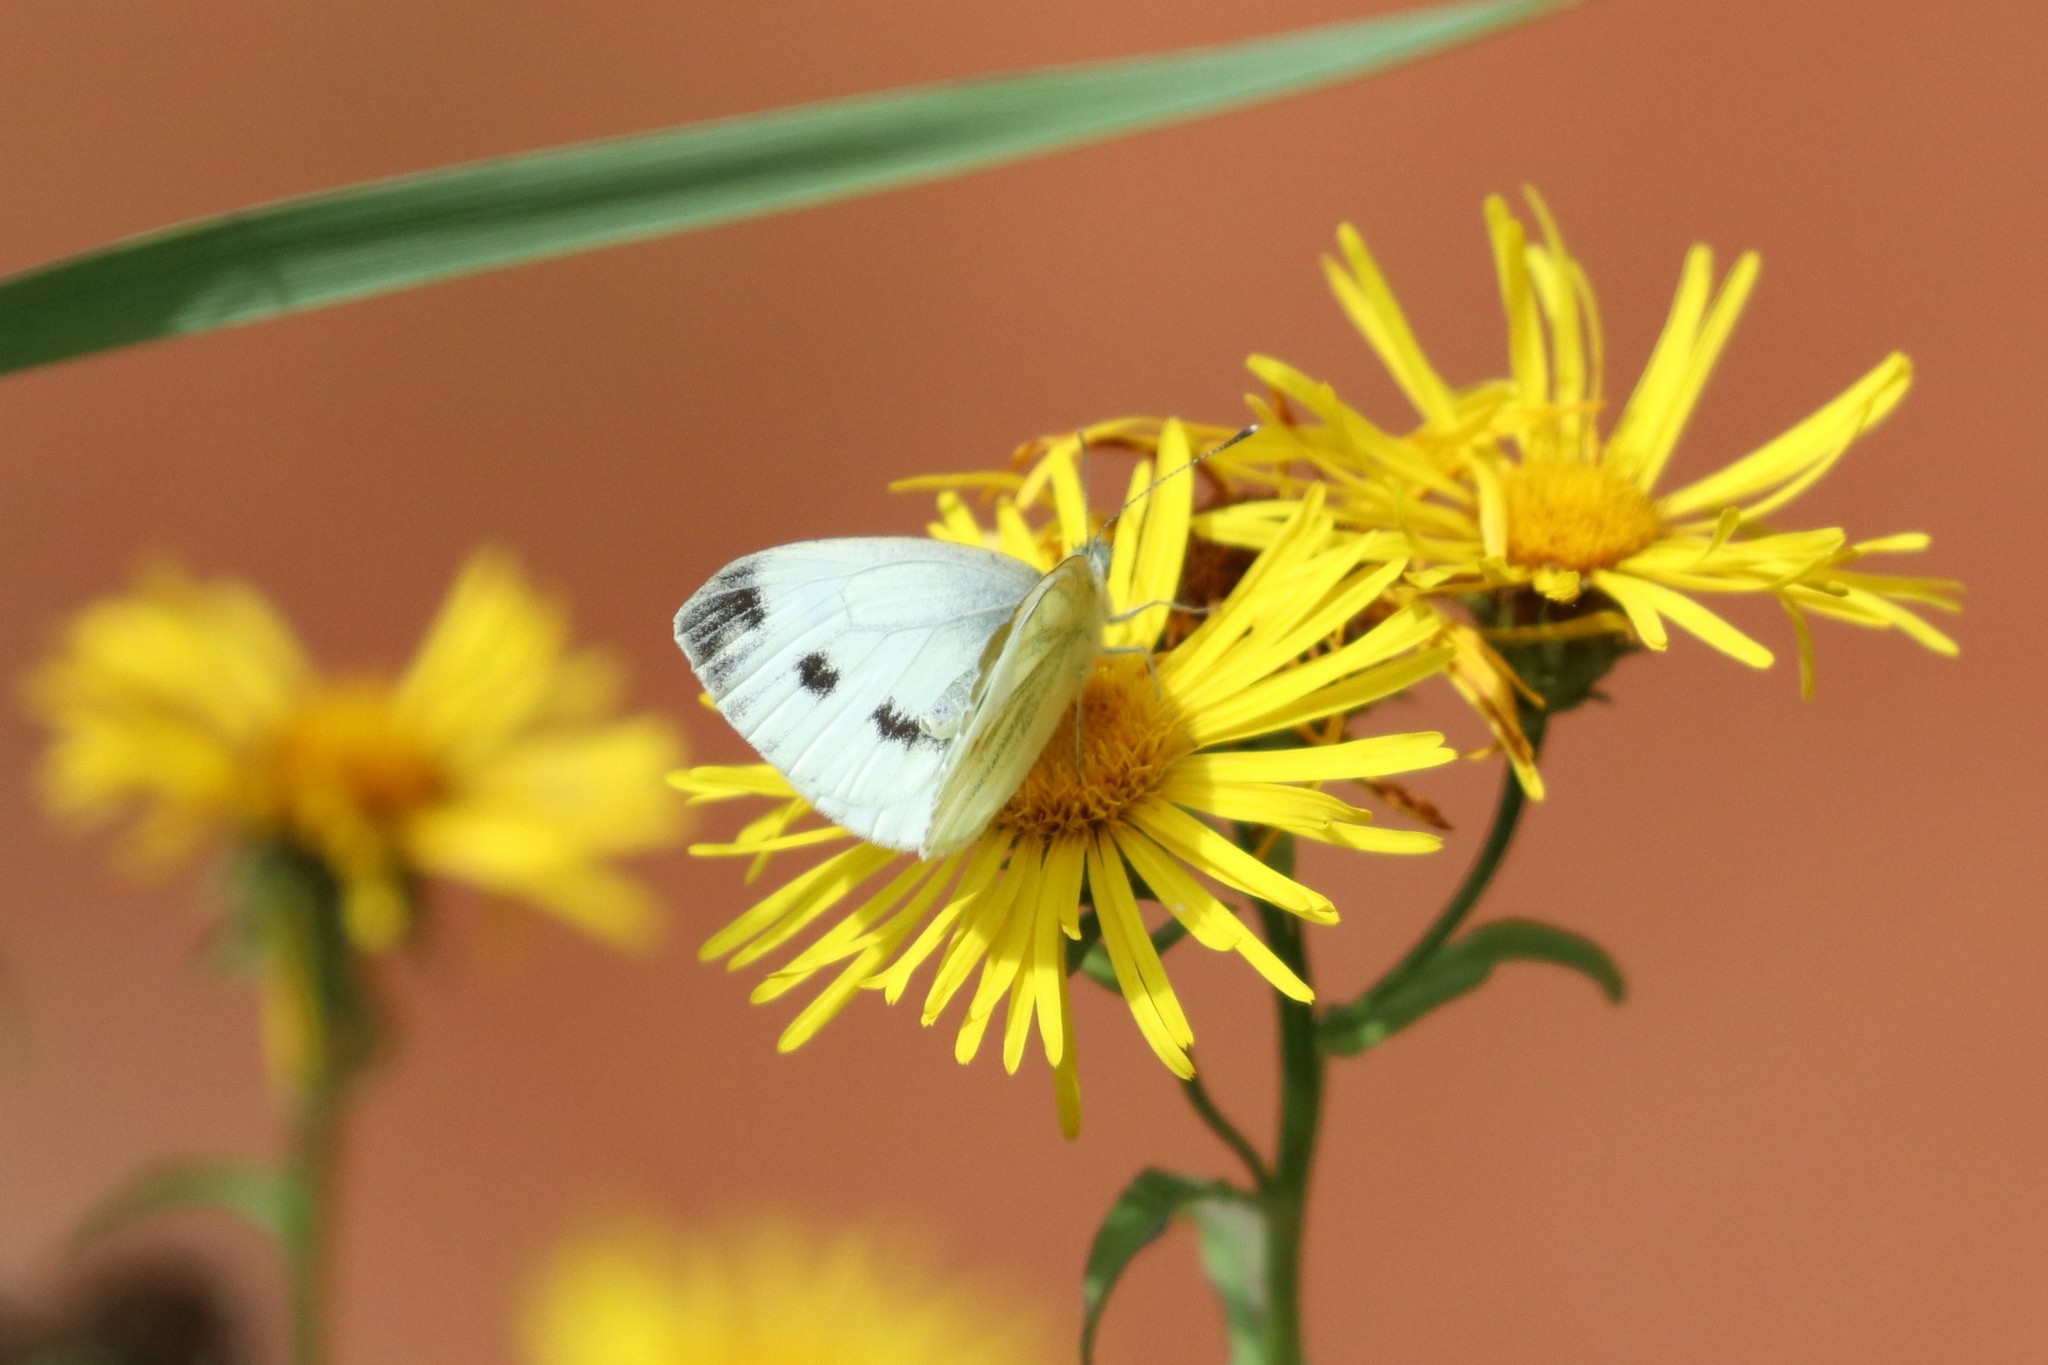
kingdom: Animalia
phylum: Arthropoda
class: Insecta
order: Lepidoptera
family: Pieridae
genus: Pieris
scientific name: Pieris napi
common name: Green-veined white
